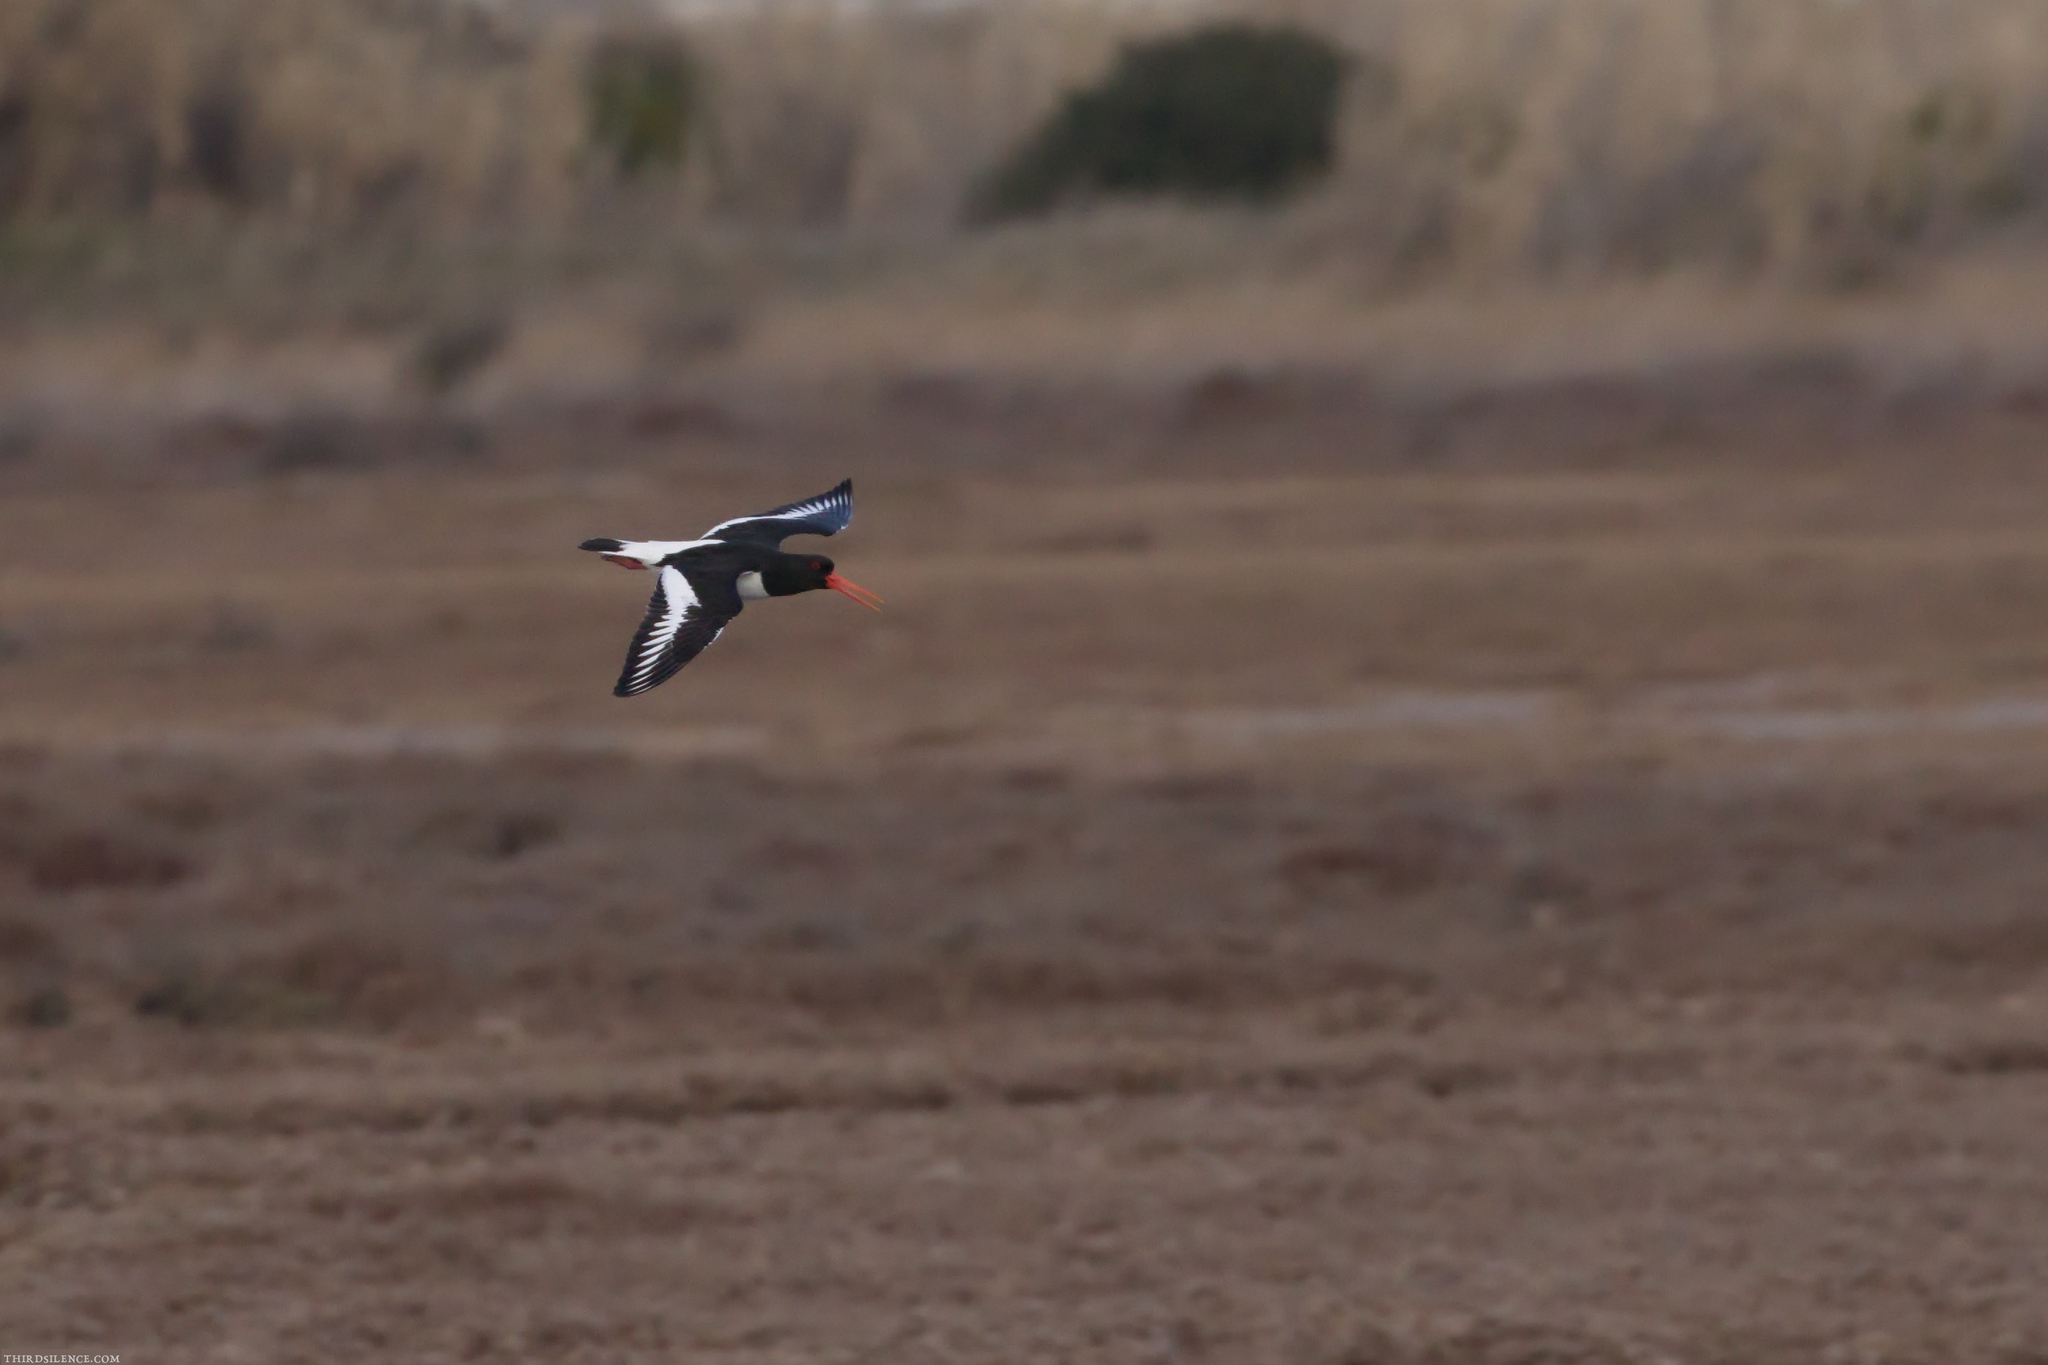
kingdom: Animalia
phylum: Chordata
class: Aves
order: Charadriiformes
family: Haematopodidae
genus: Haematopus
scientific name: Haematopus ostralegus
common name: Eurasian oystercatcher
